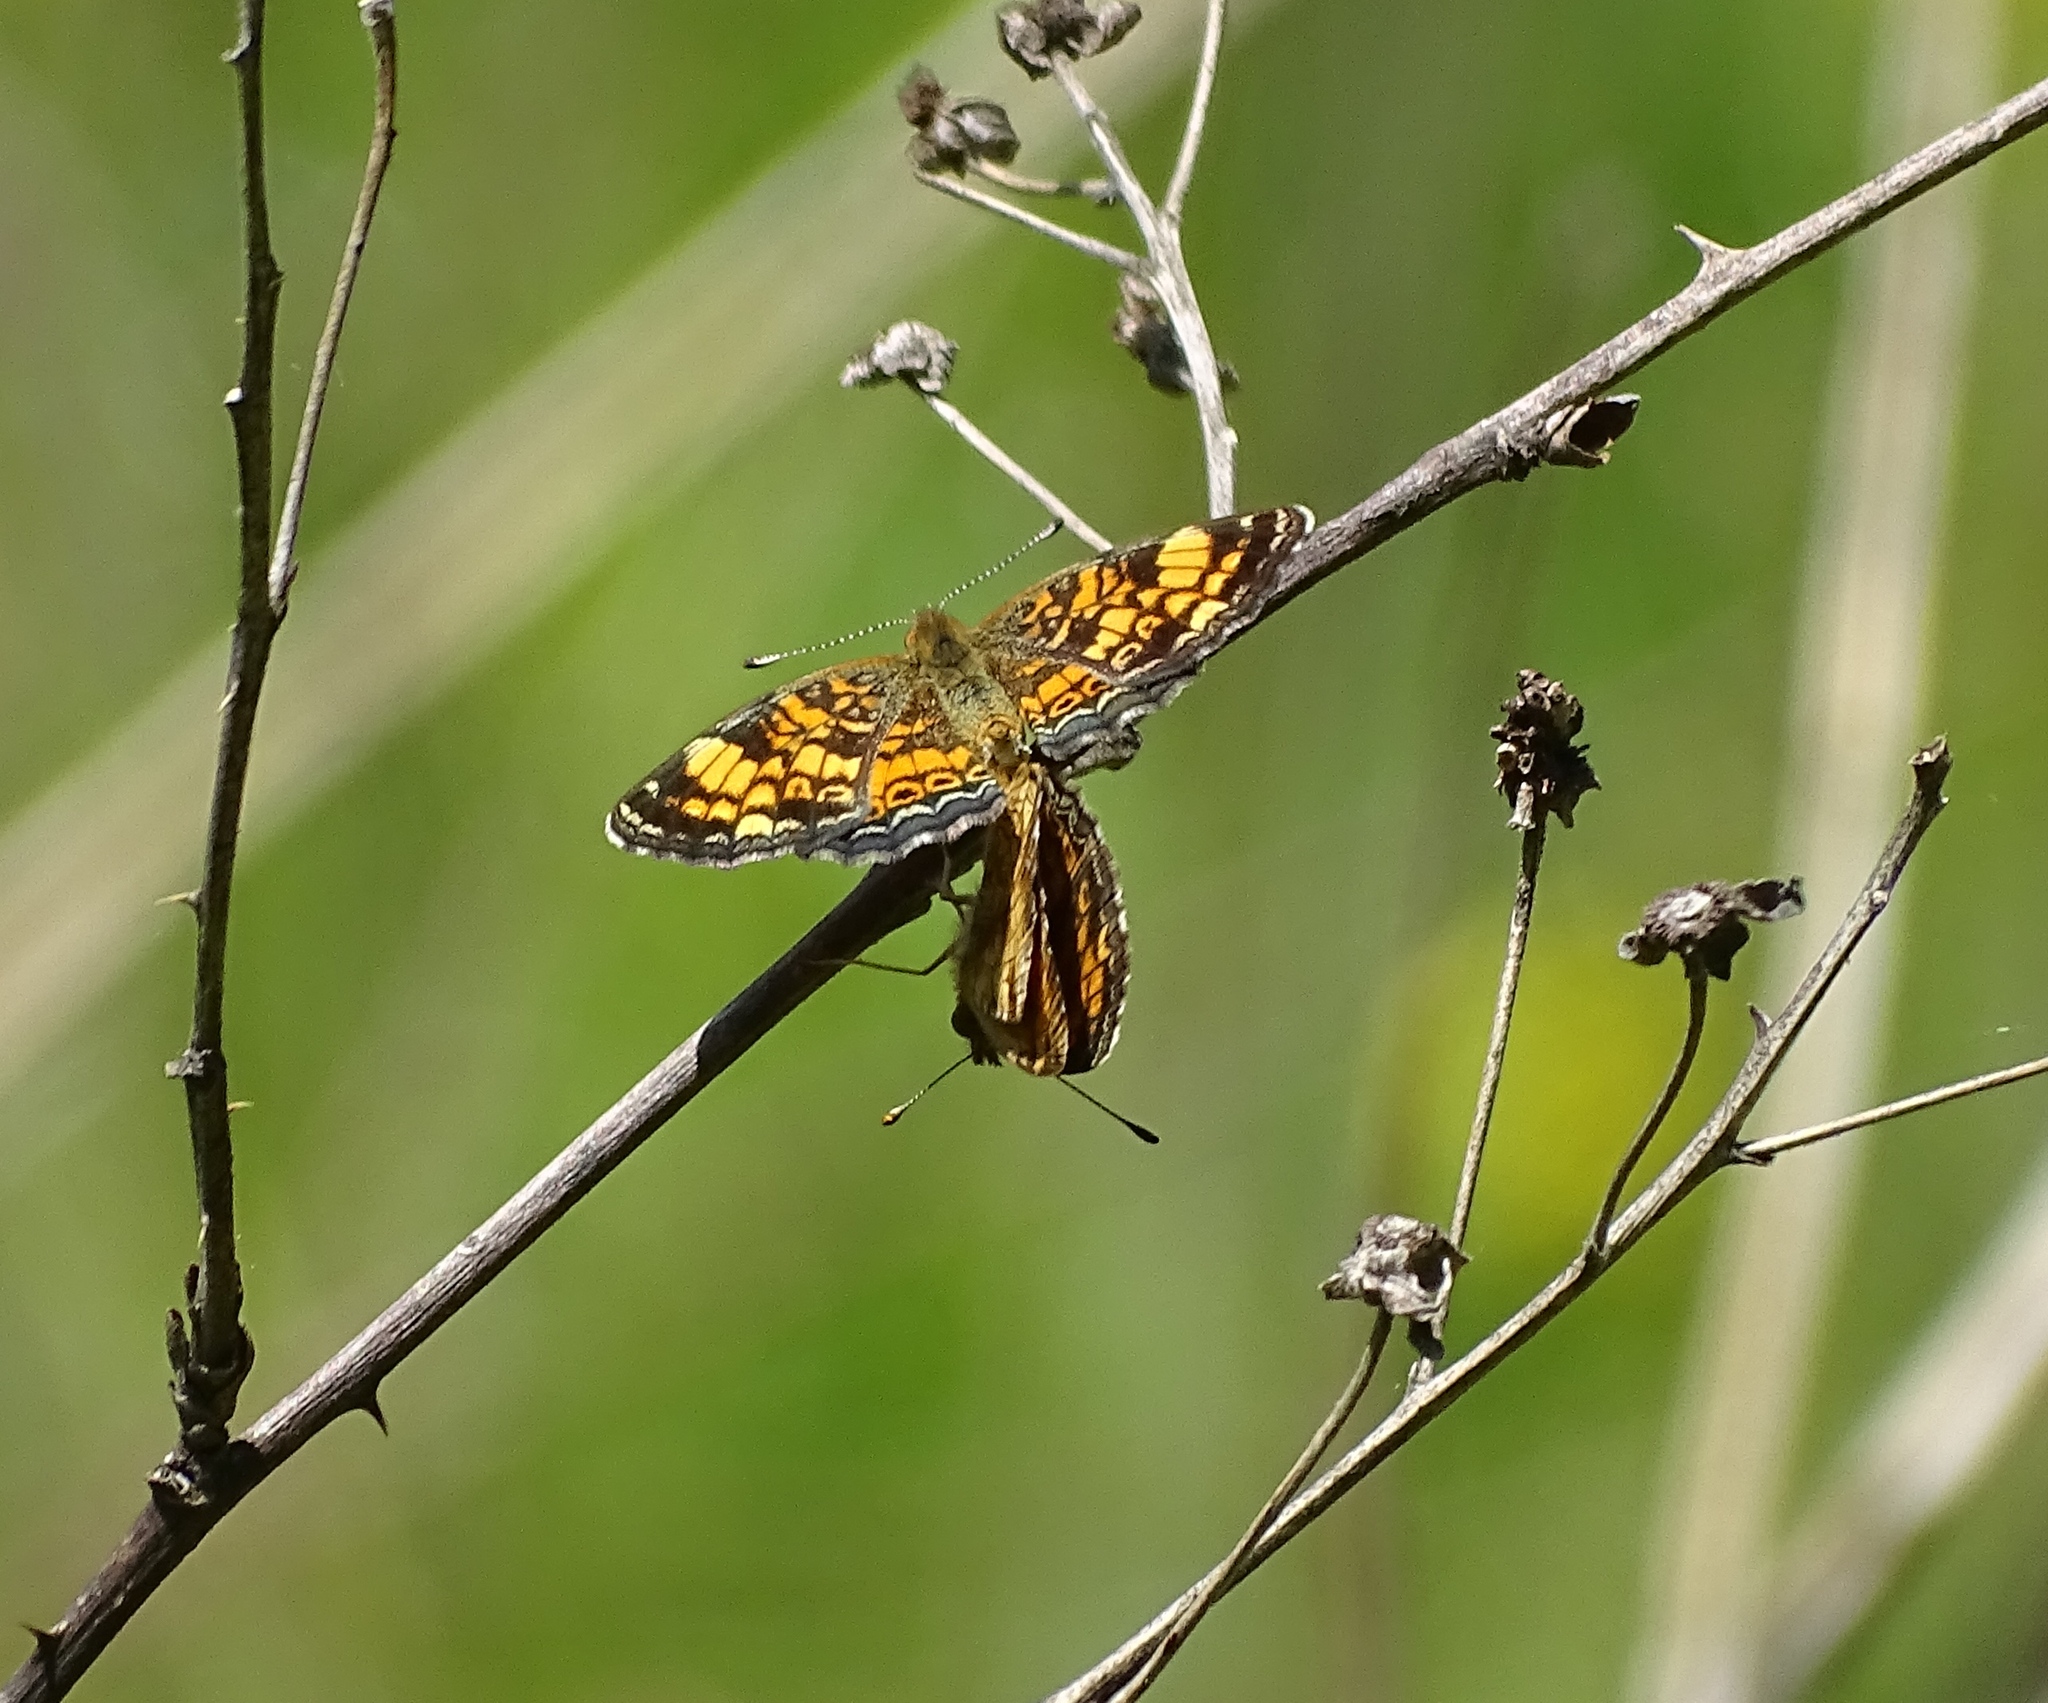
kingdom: Animalia
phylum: Arthropoda
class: Insecta
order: Lepidoptera
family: Nymphalidae
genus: Phyciodes
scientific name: Phyciodes tharos
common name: Pearl crescent
